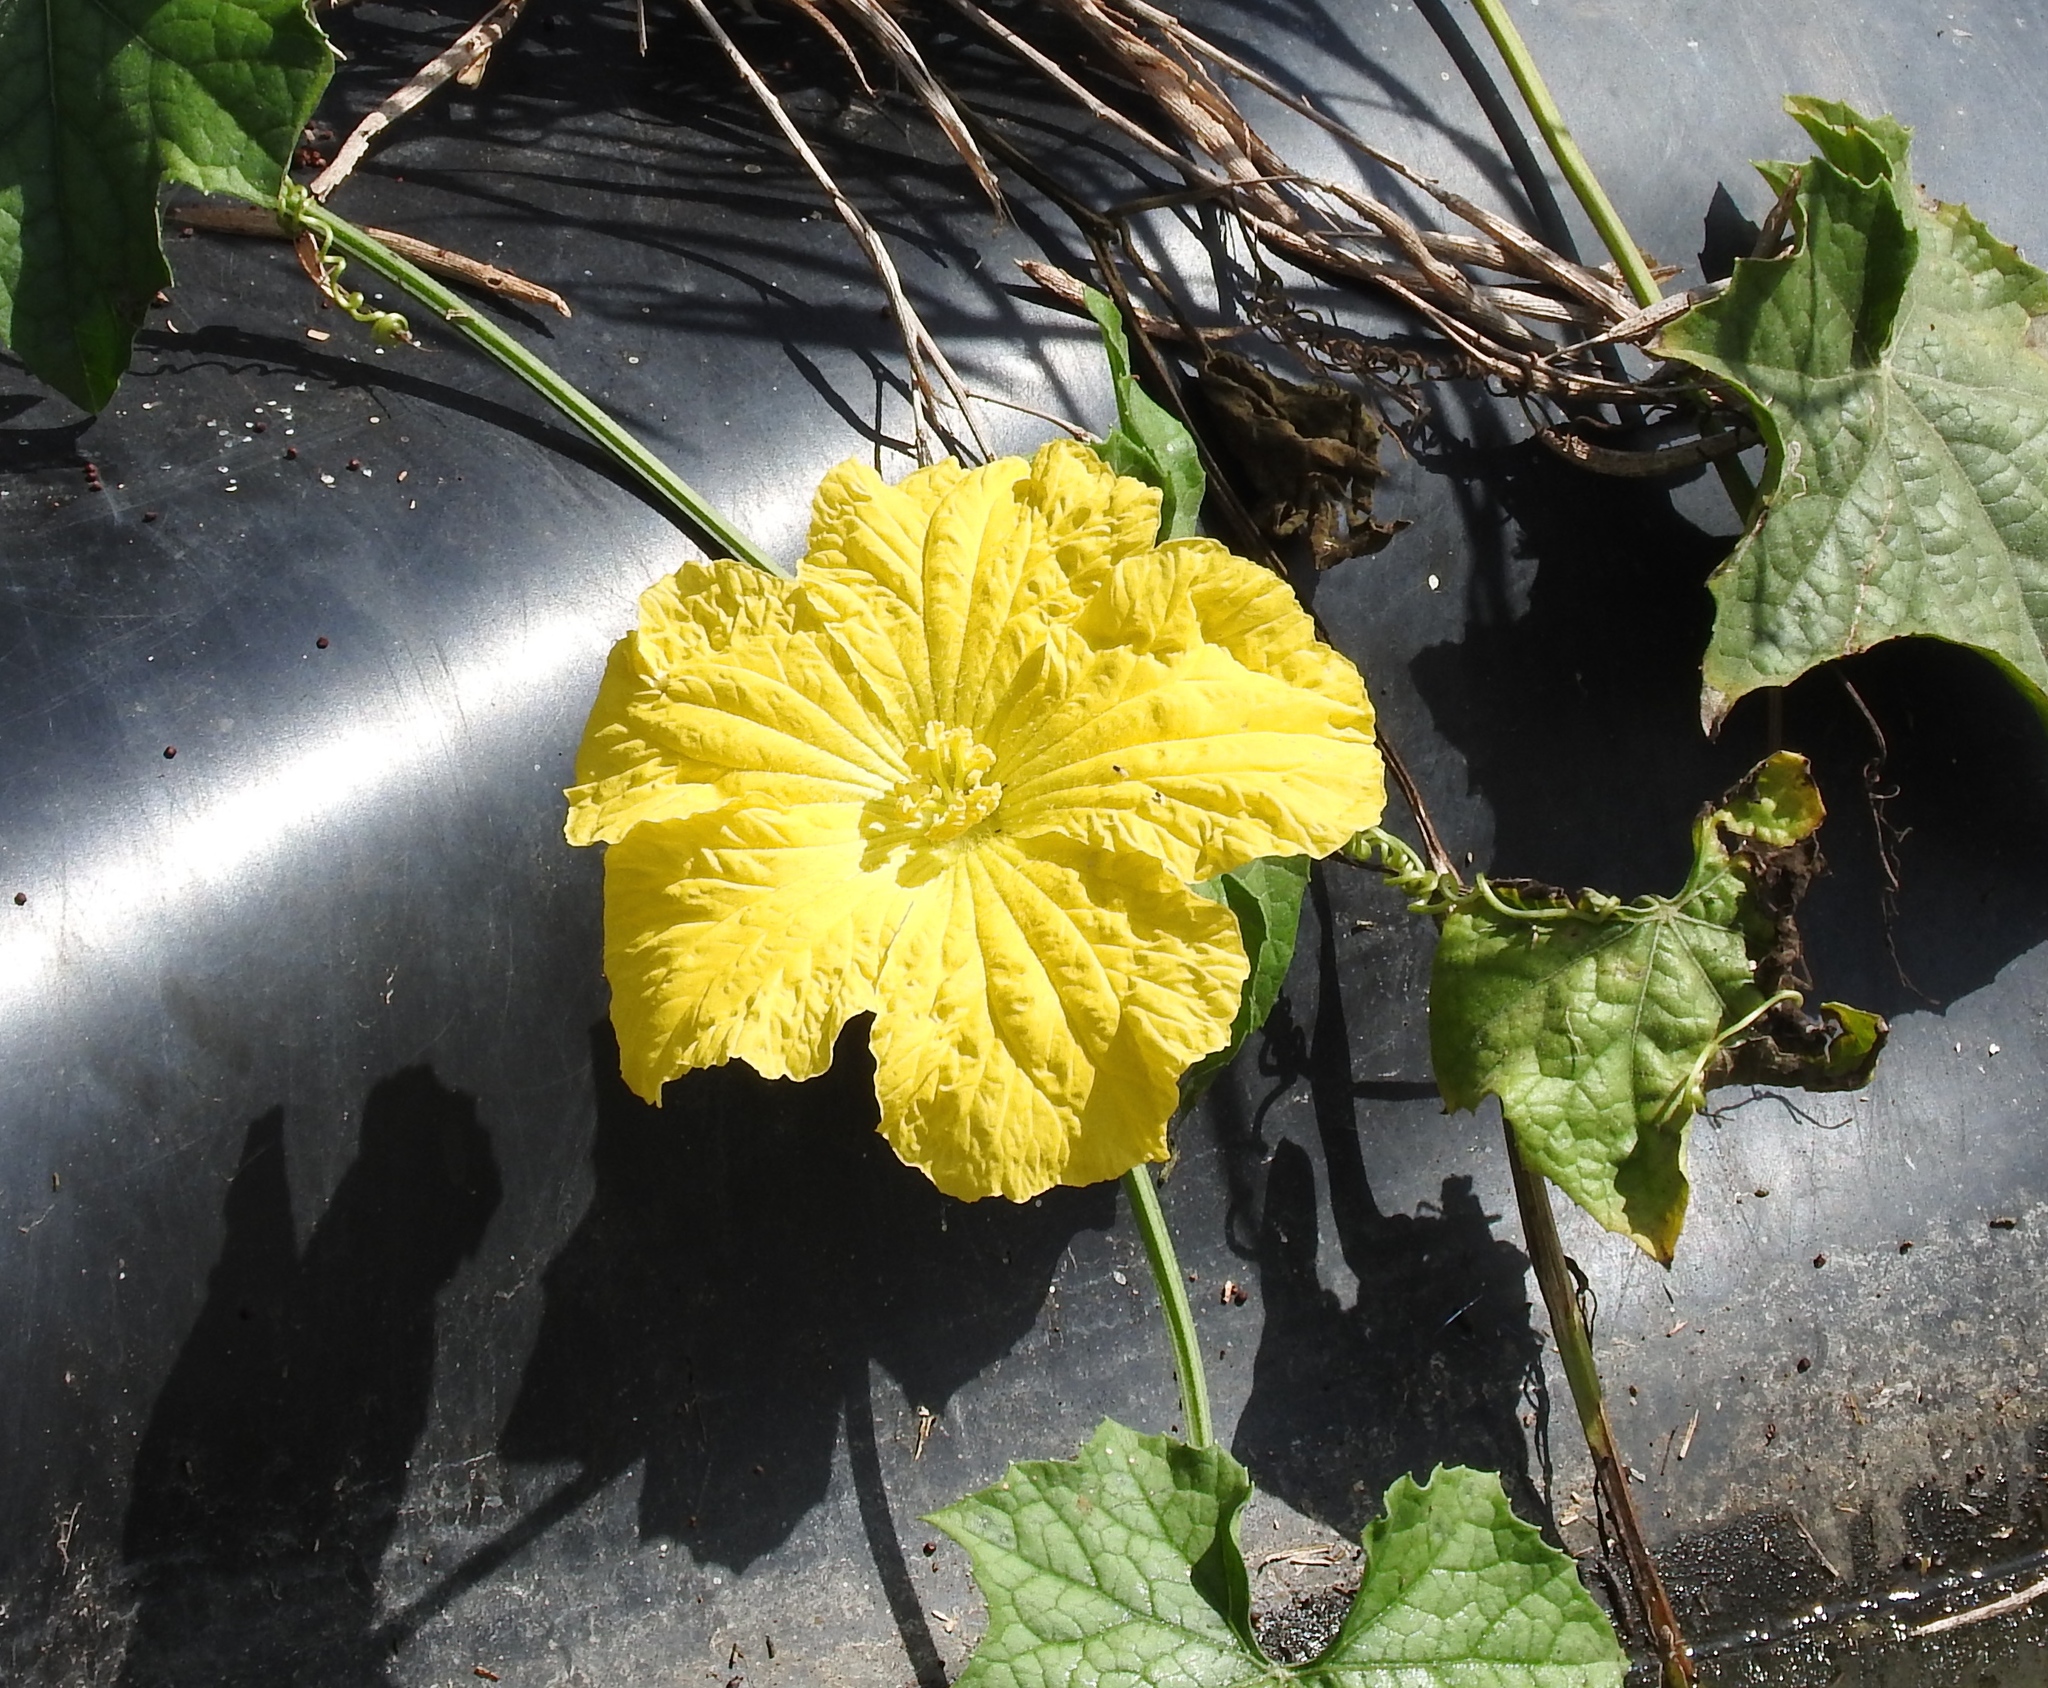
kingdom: Plantae
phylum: Tracheophyta
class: Magnoliopsida
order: Cucurbitales
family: Cucurbitaceae
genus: Luffa
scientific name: Luffa aegyptiaca
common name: Sponge gourd
